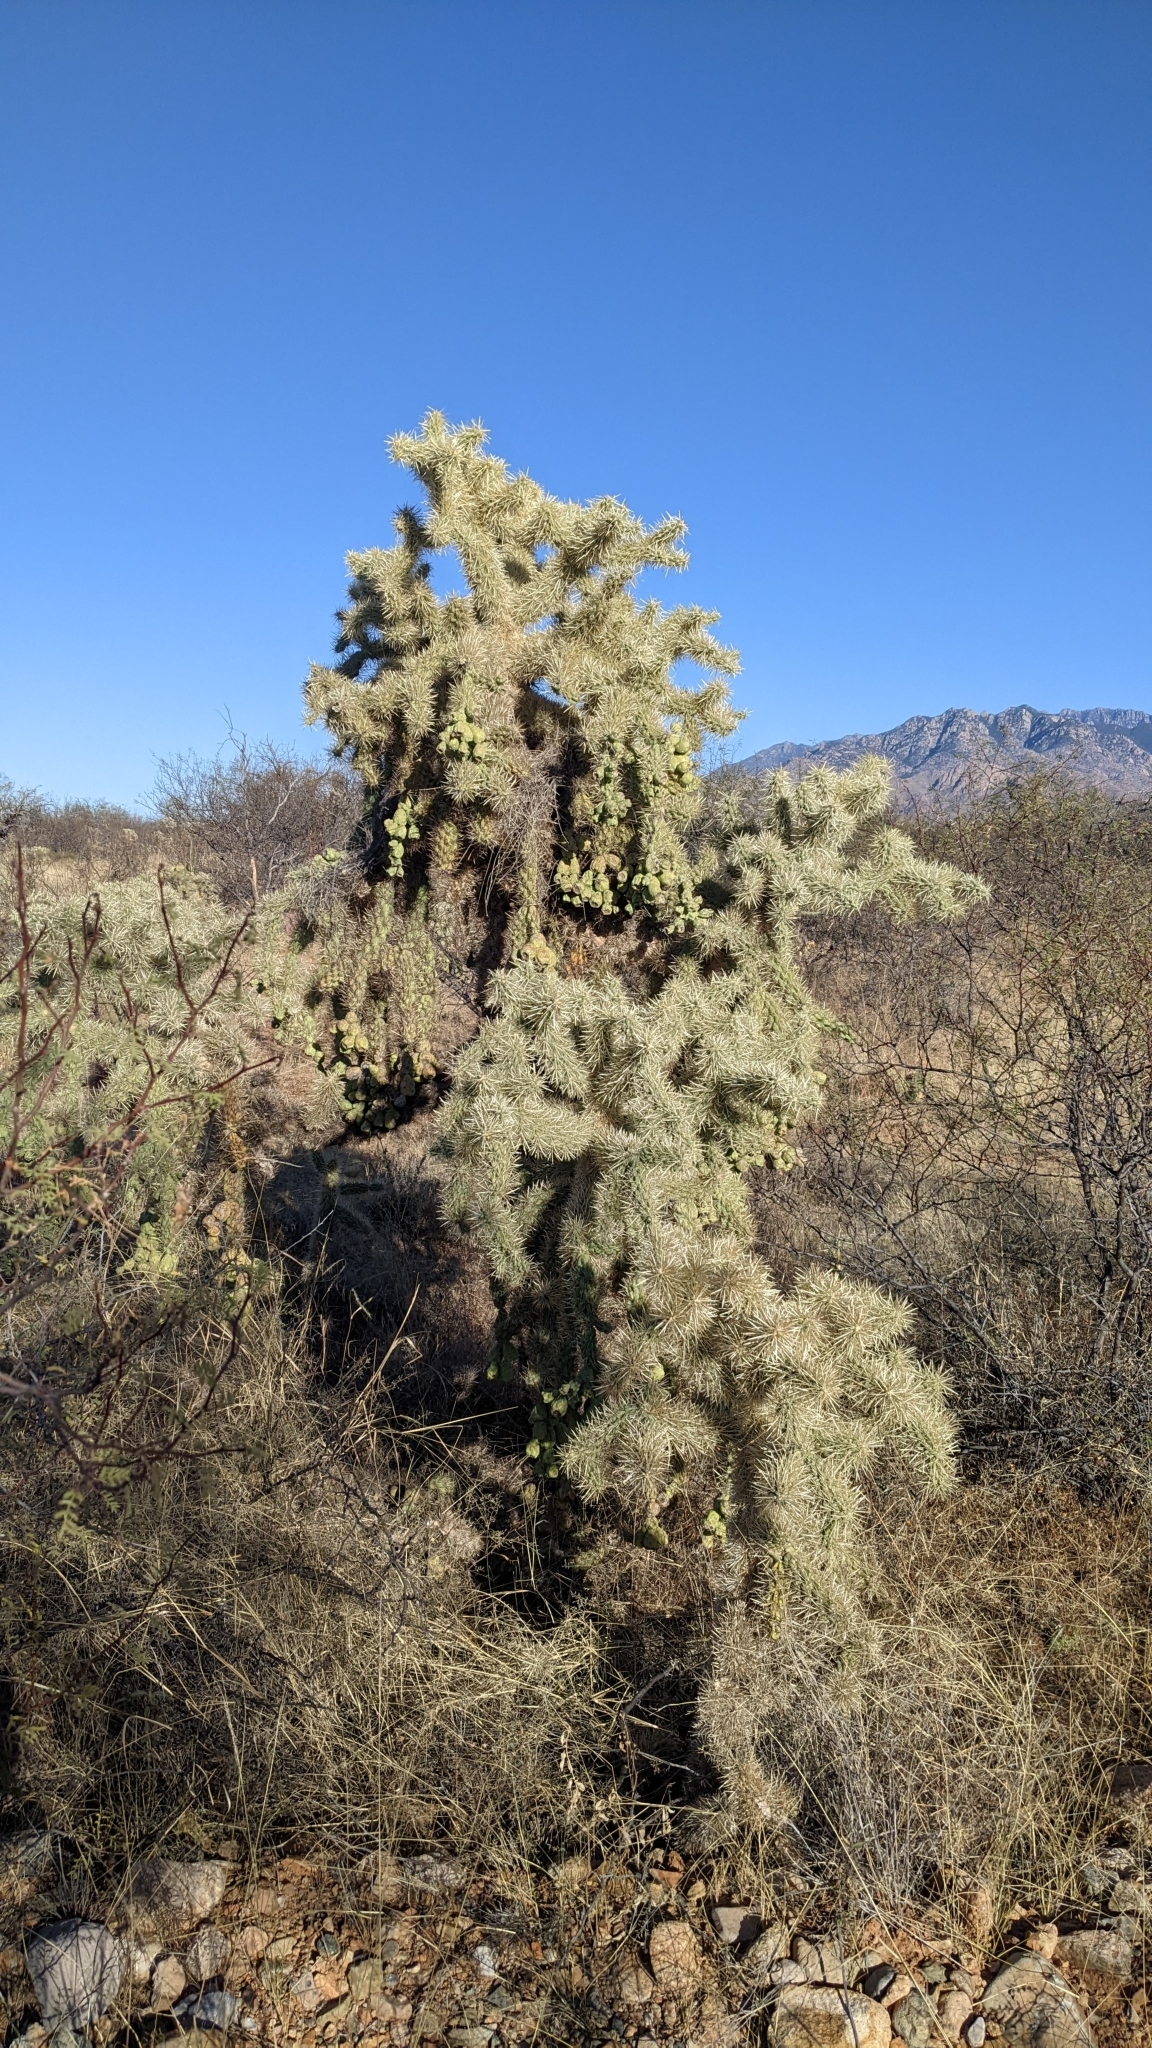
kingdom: Plantae
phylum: Tracheophyta
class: Magnoliopsida
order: Caryophyllales
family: Cactaceae
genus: Cylindropuntia
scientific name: Cylindropuntia fulgida
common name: Jumping cholla
